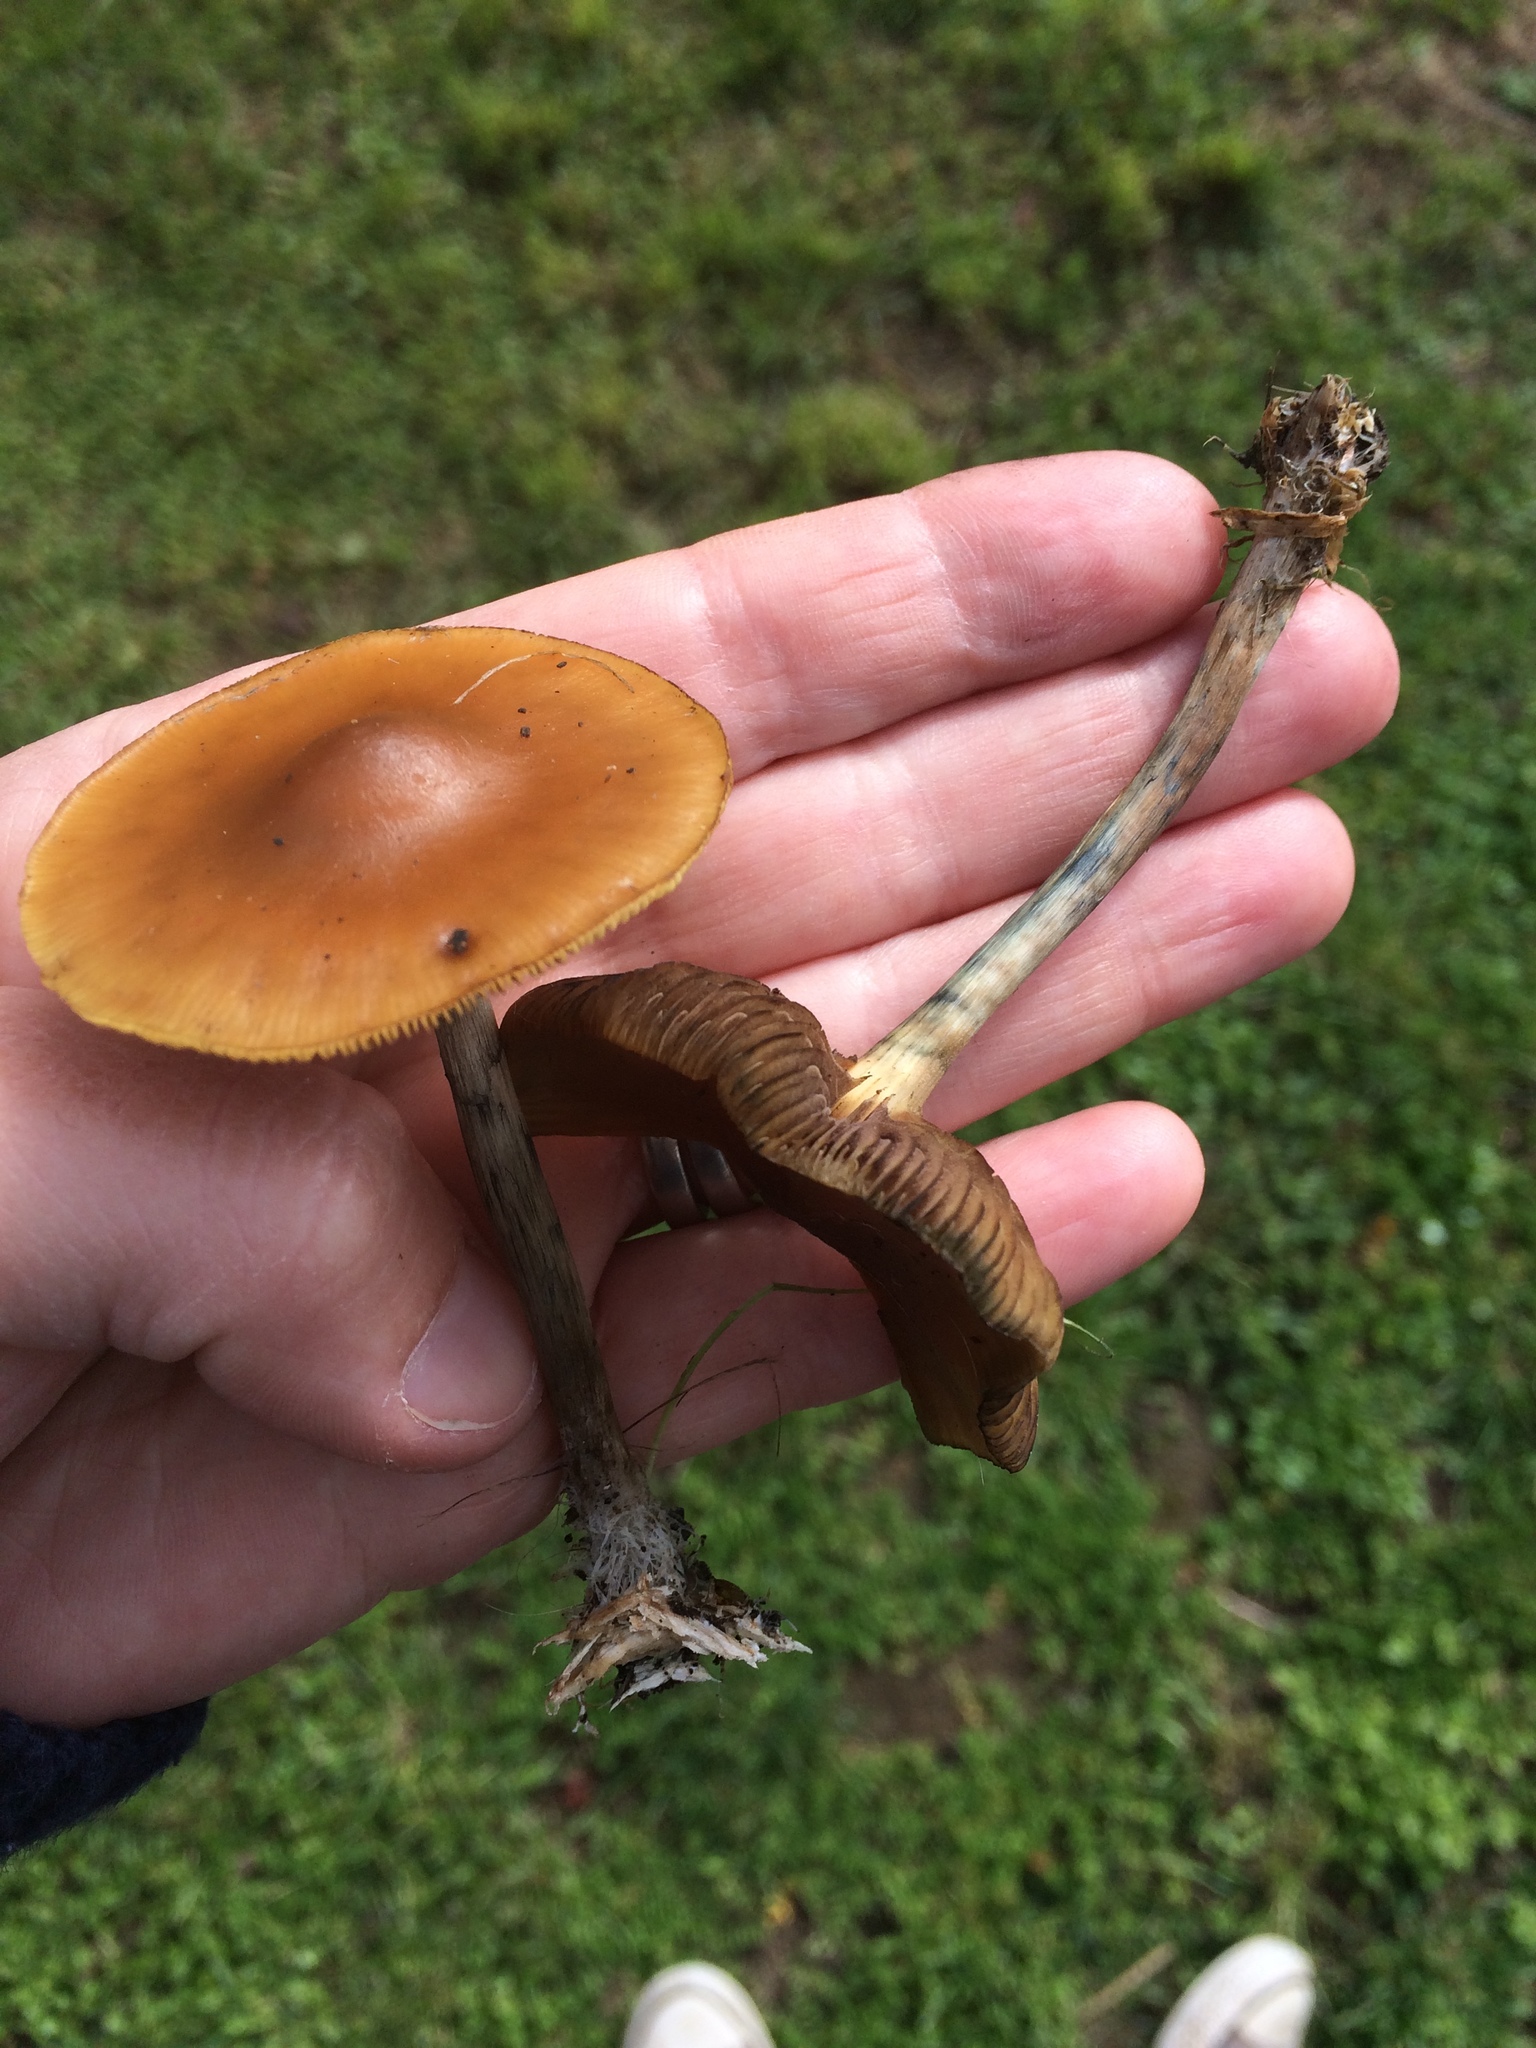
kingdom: Fungi
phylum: Basidiomycota
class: Agaricomycetes
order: Agaricales
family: Hymenogastraceae
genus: Psilocybe
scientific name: Psilocybe subaeruginosa
